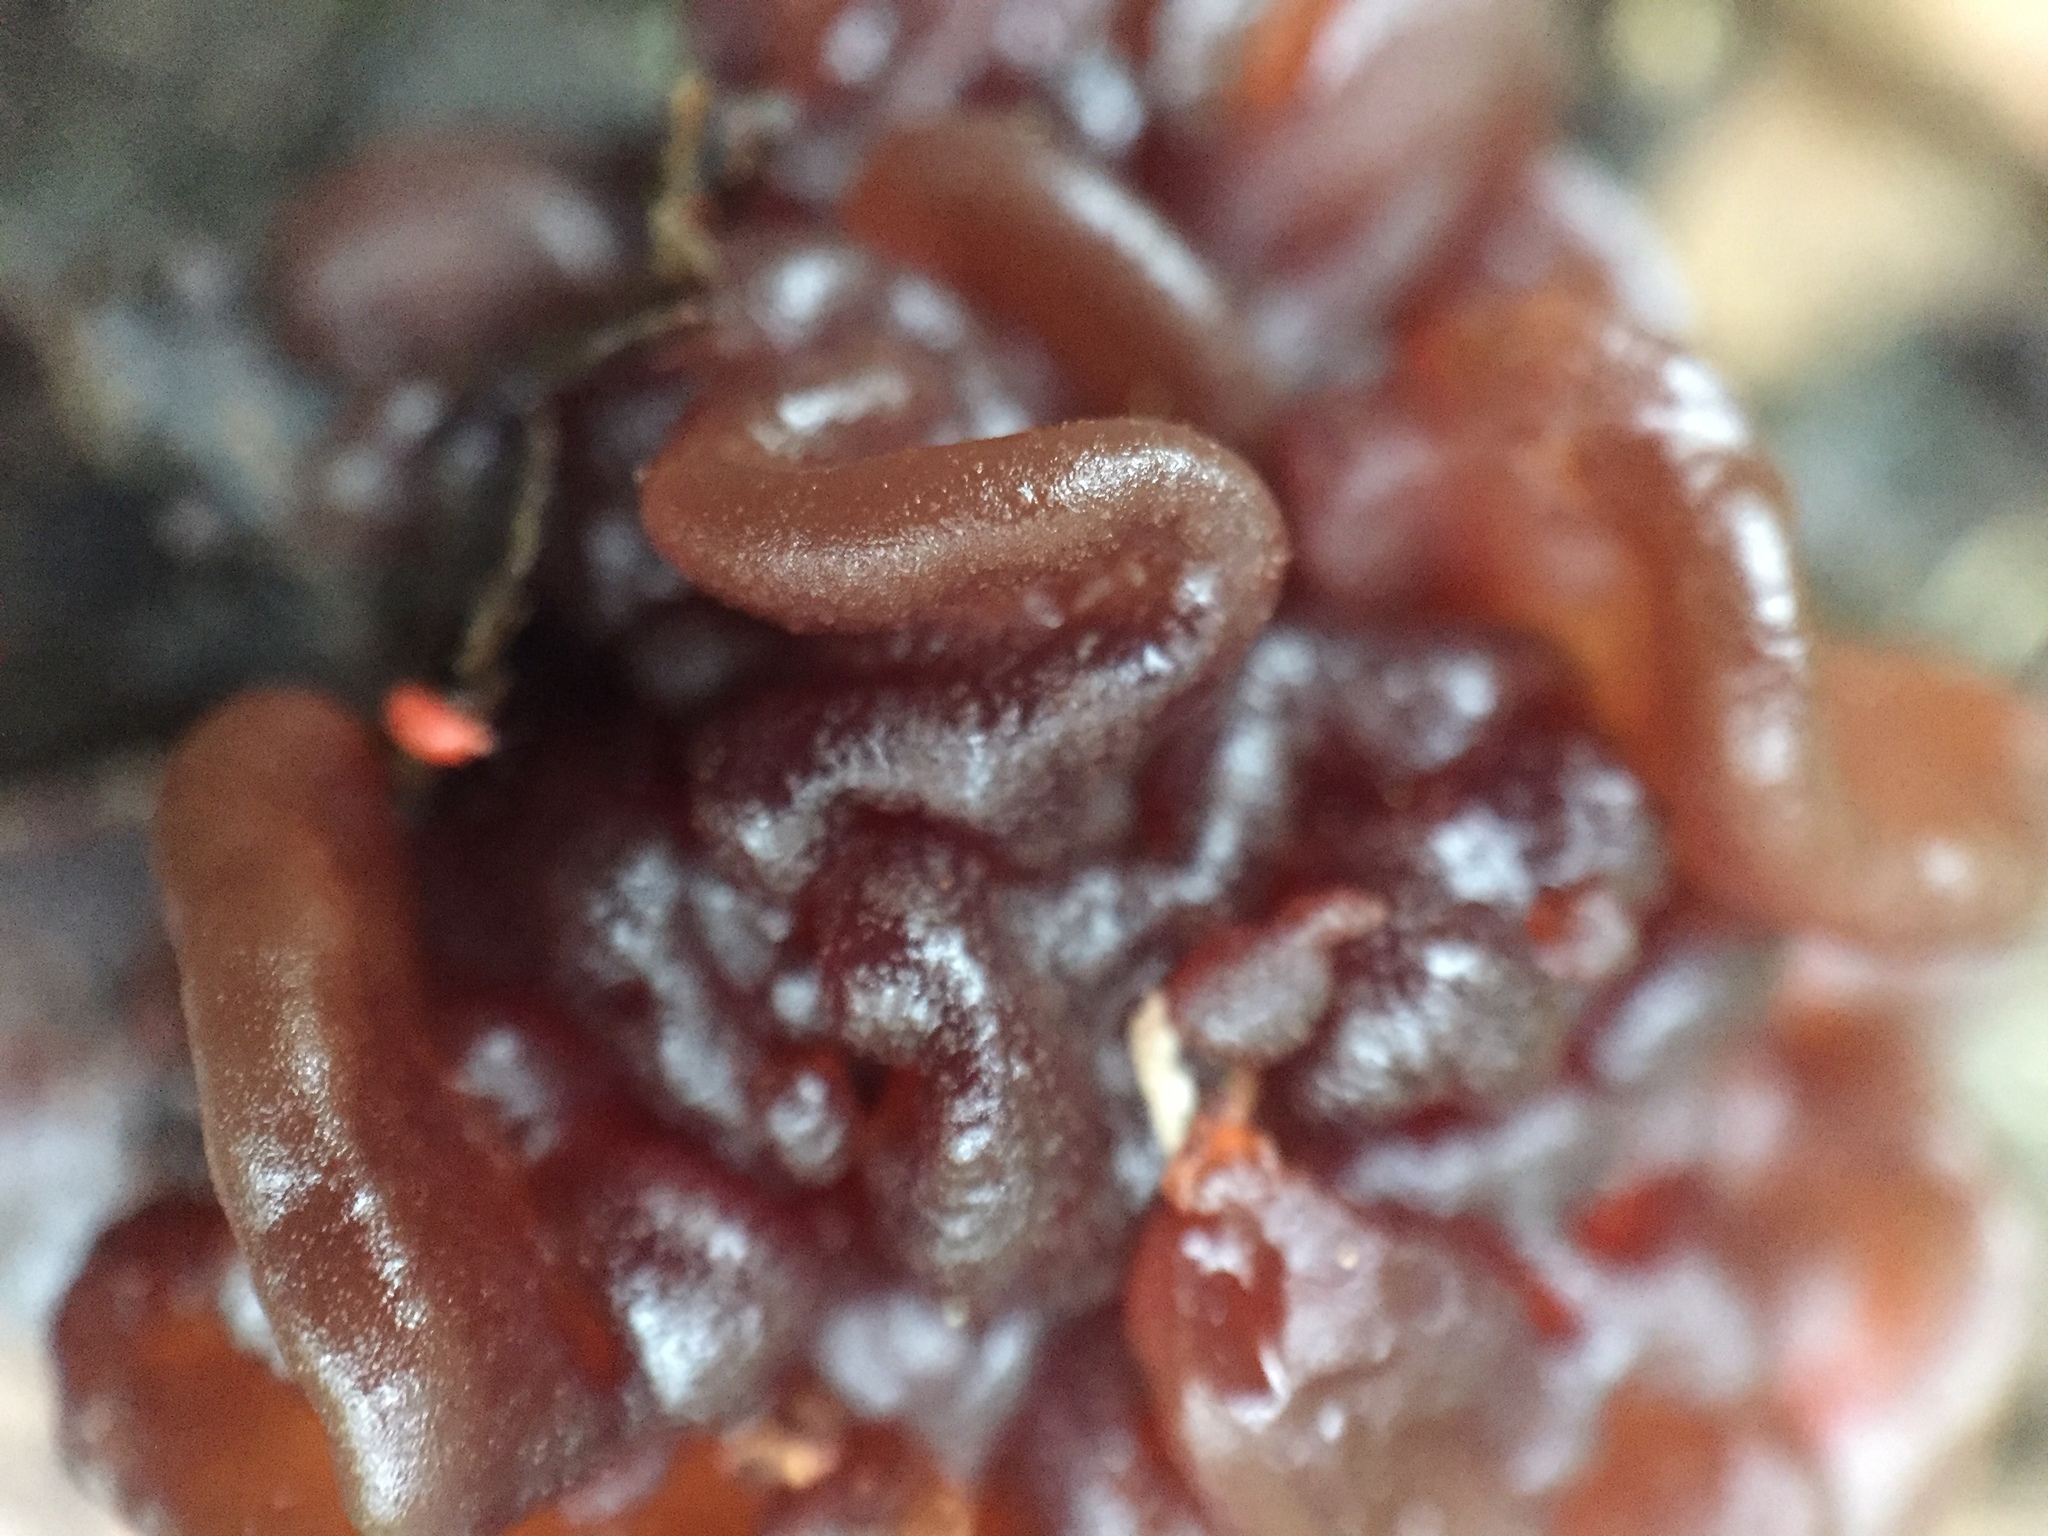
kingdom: Fungi
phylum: Basidiomycota
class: Tremellomycetes
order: Tremellales
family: Tremellaceae
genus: Phaeotremella
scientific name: Phaeotremella foliacea
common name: Leafy brain
